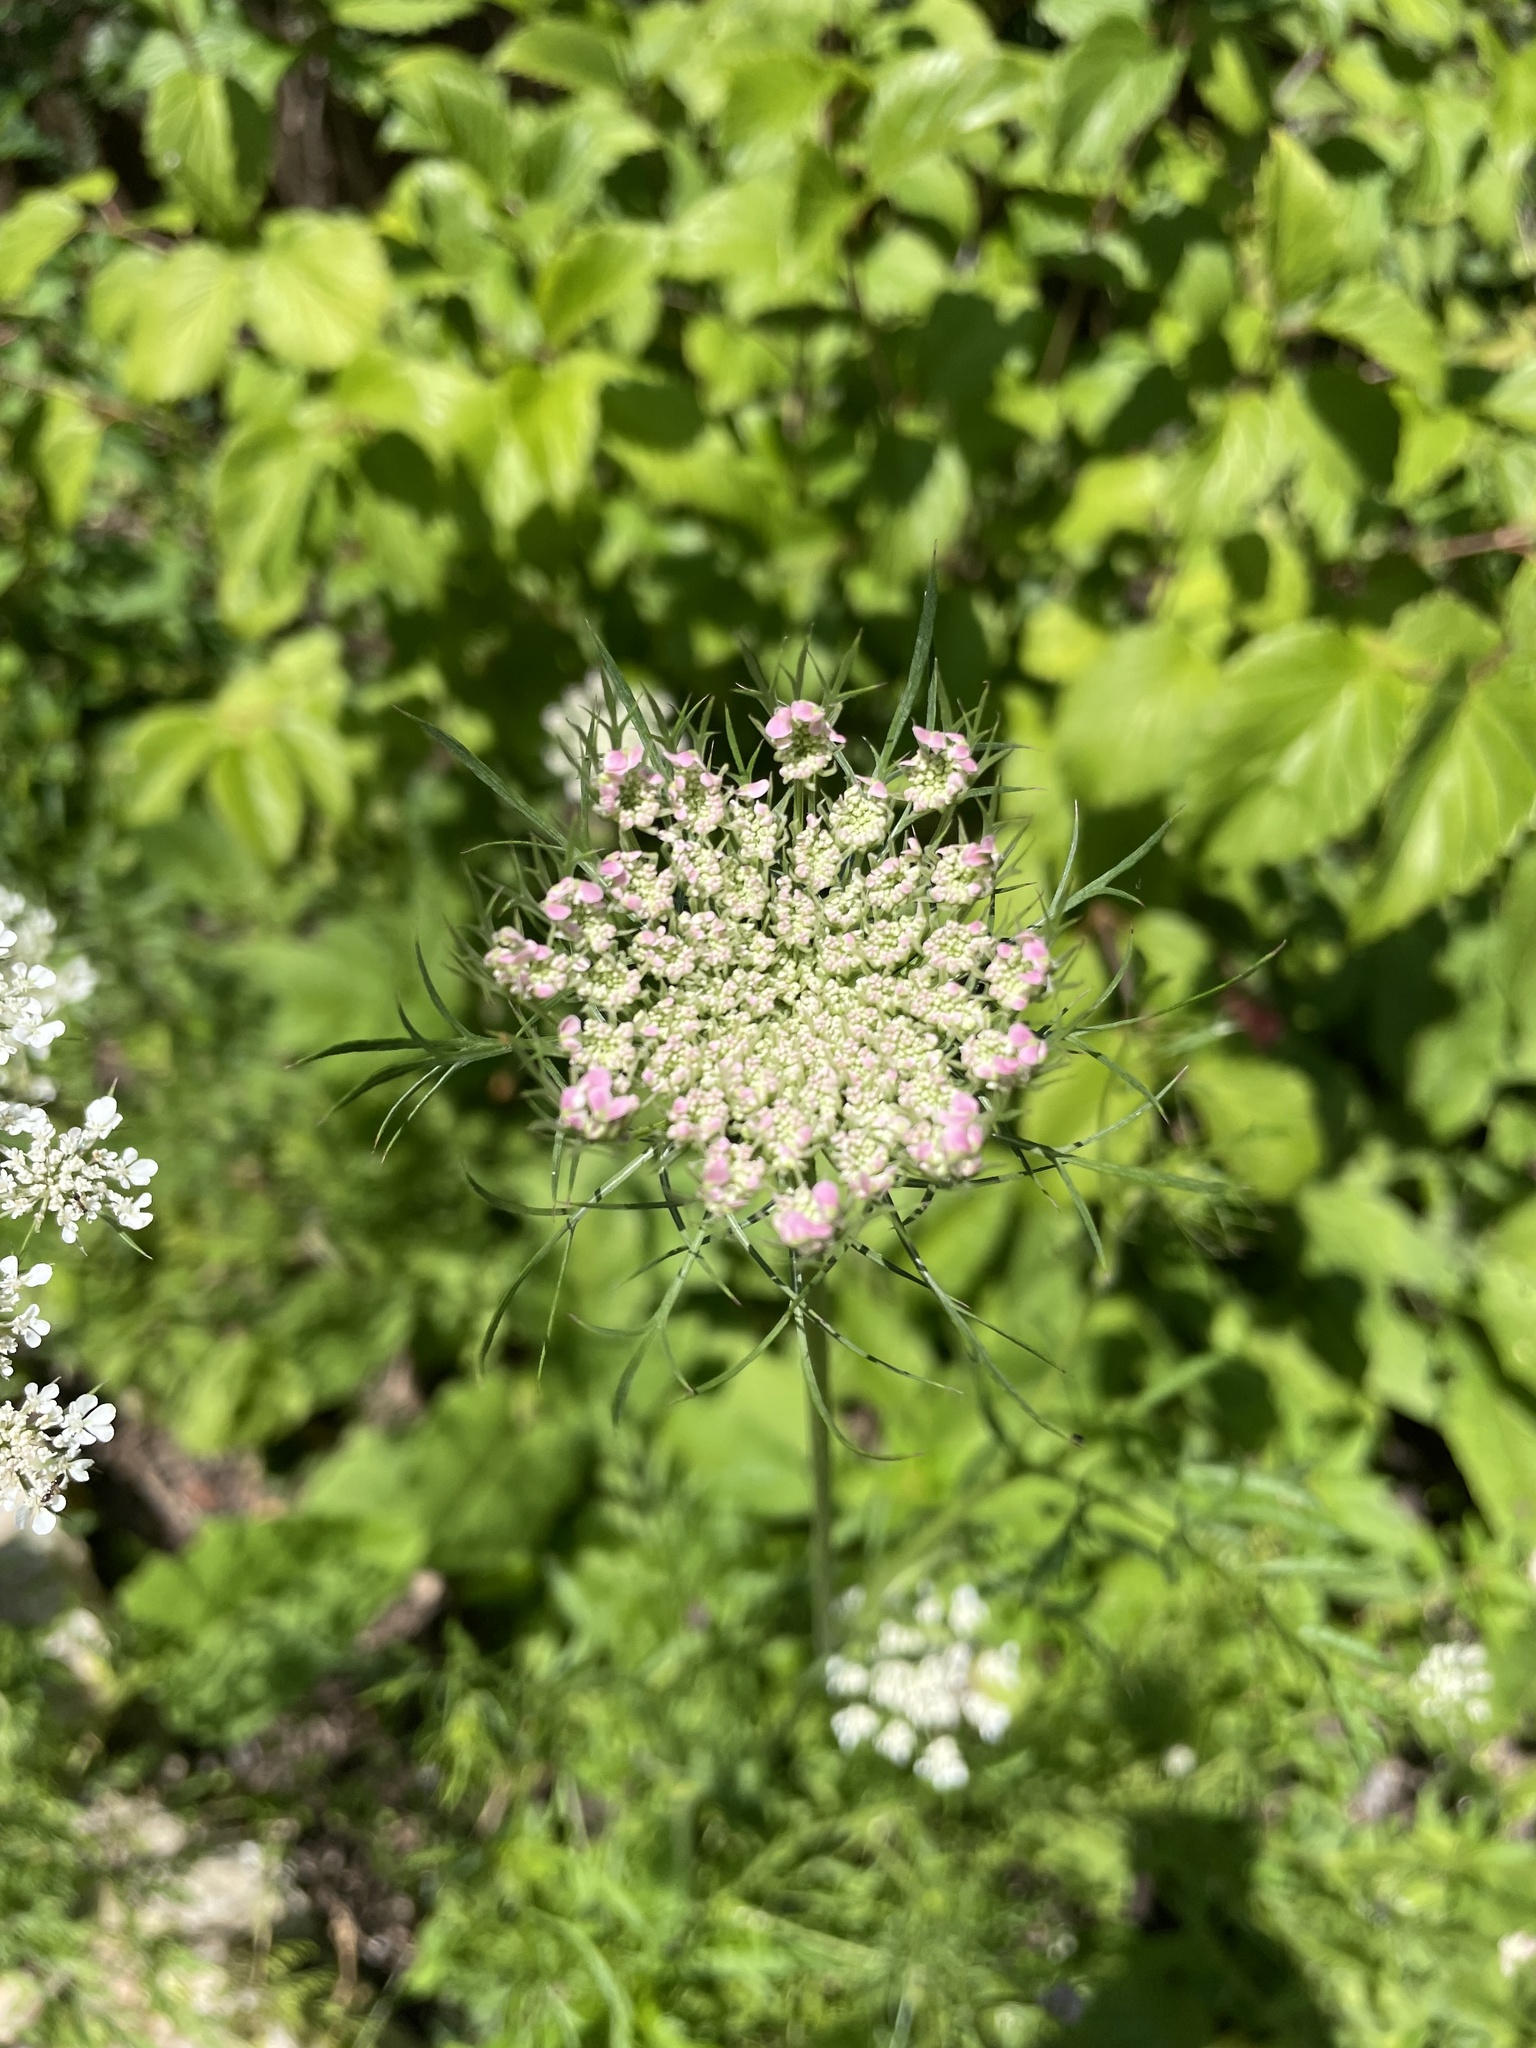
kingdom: Plantae
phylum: Tracheophyta
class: Magnoliopsida
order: Apiales
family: Apiaceae
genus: Daucus
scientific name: Daucus carota
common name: Wild carrot
